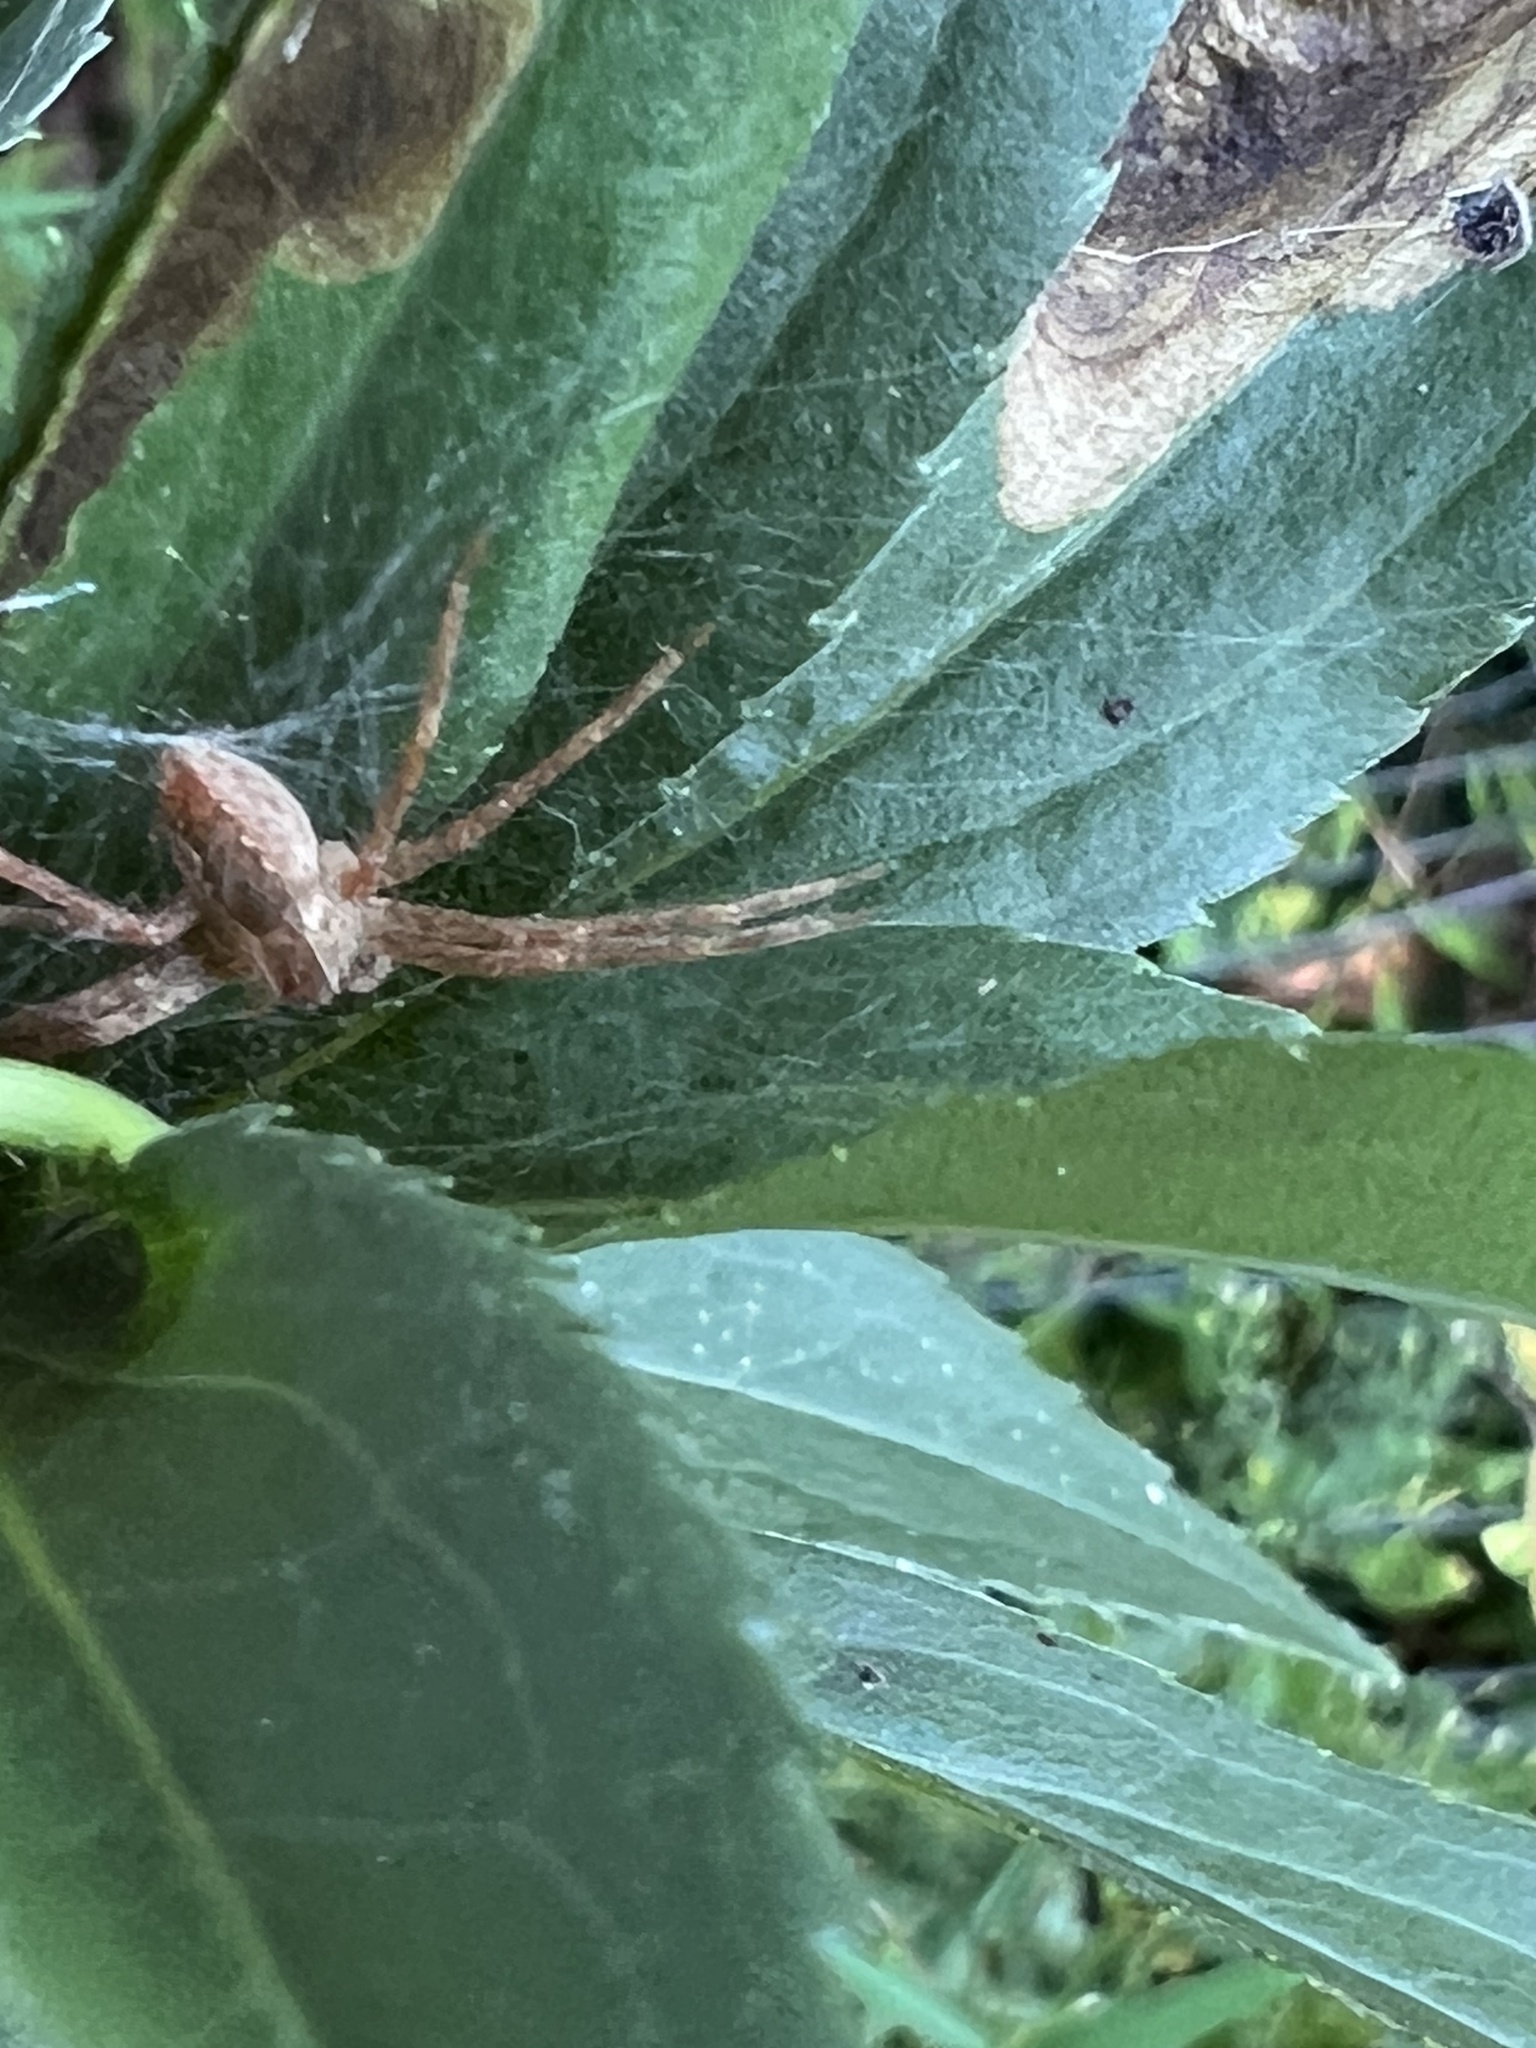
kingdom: Animalia
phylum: Arthropoda
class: Arachnida
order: Araneae
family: Pisauridae
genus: Pisaurina
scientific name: Pisaurina mira
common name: American nursery web spider
